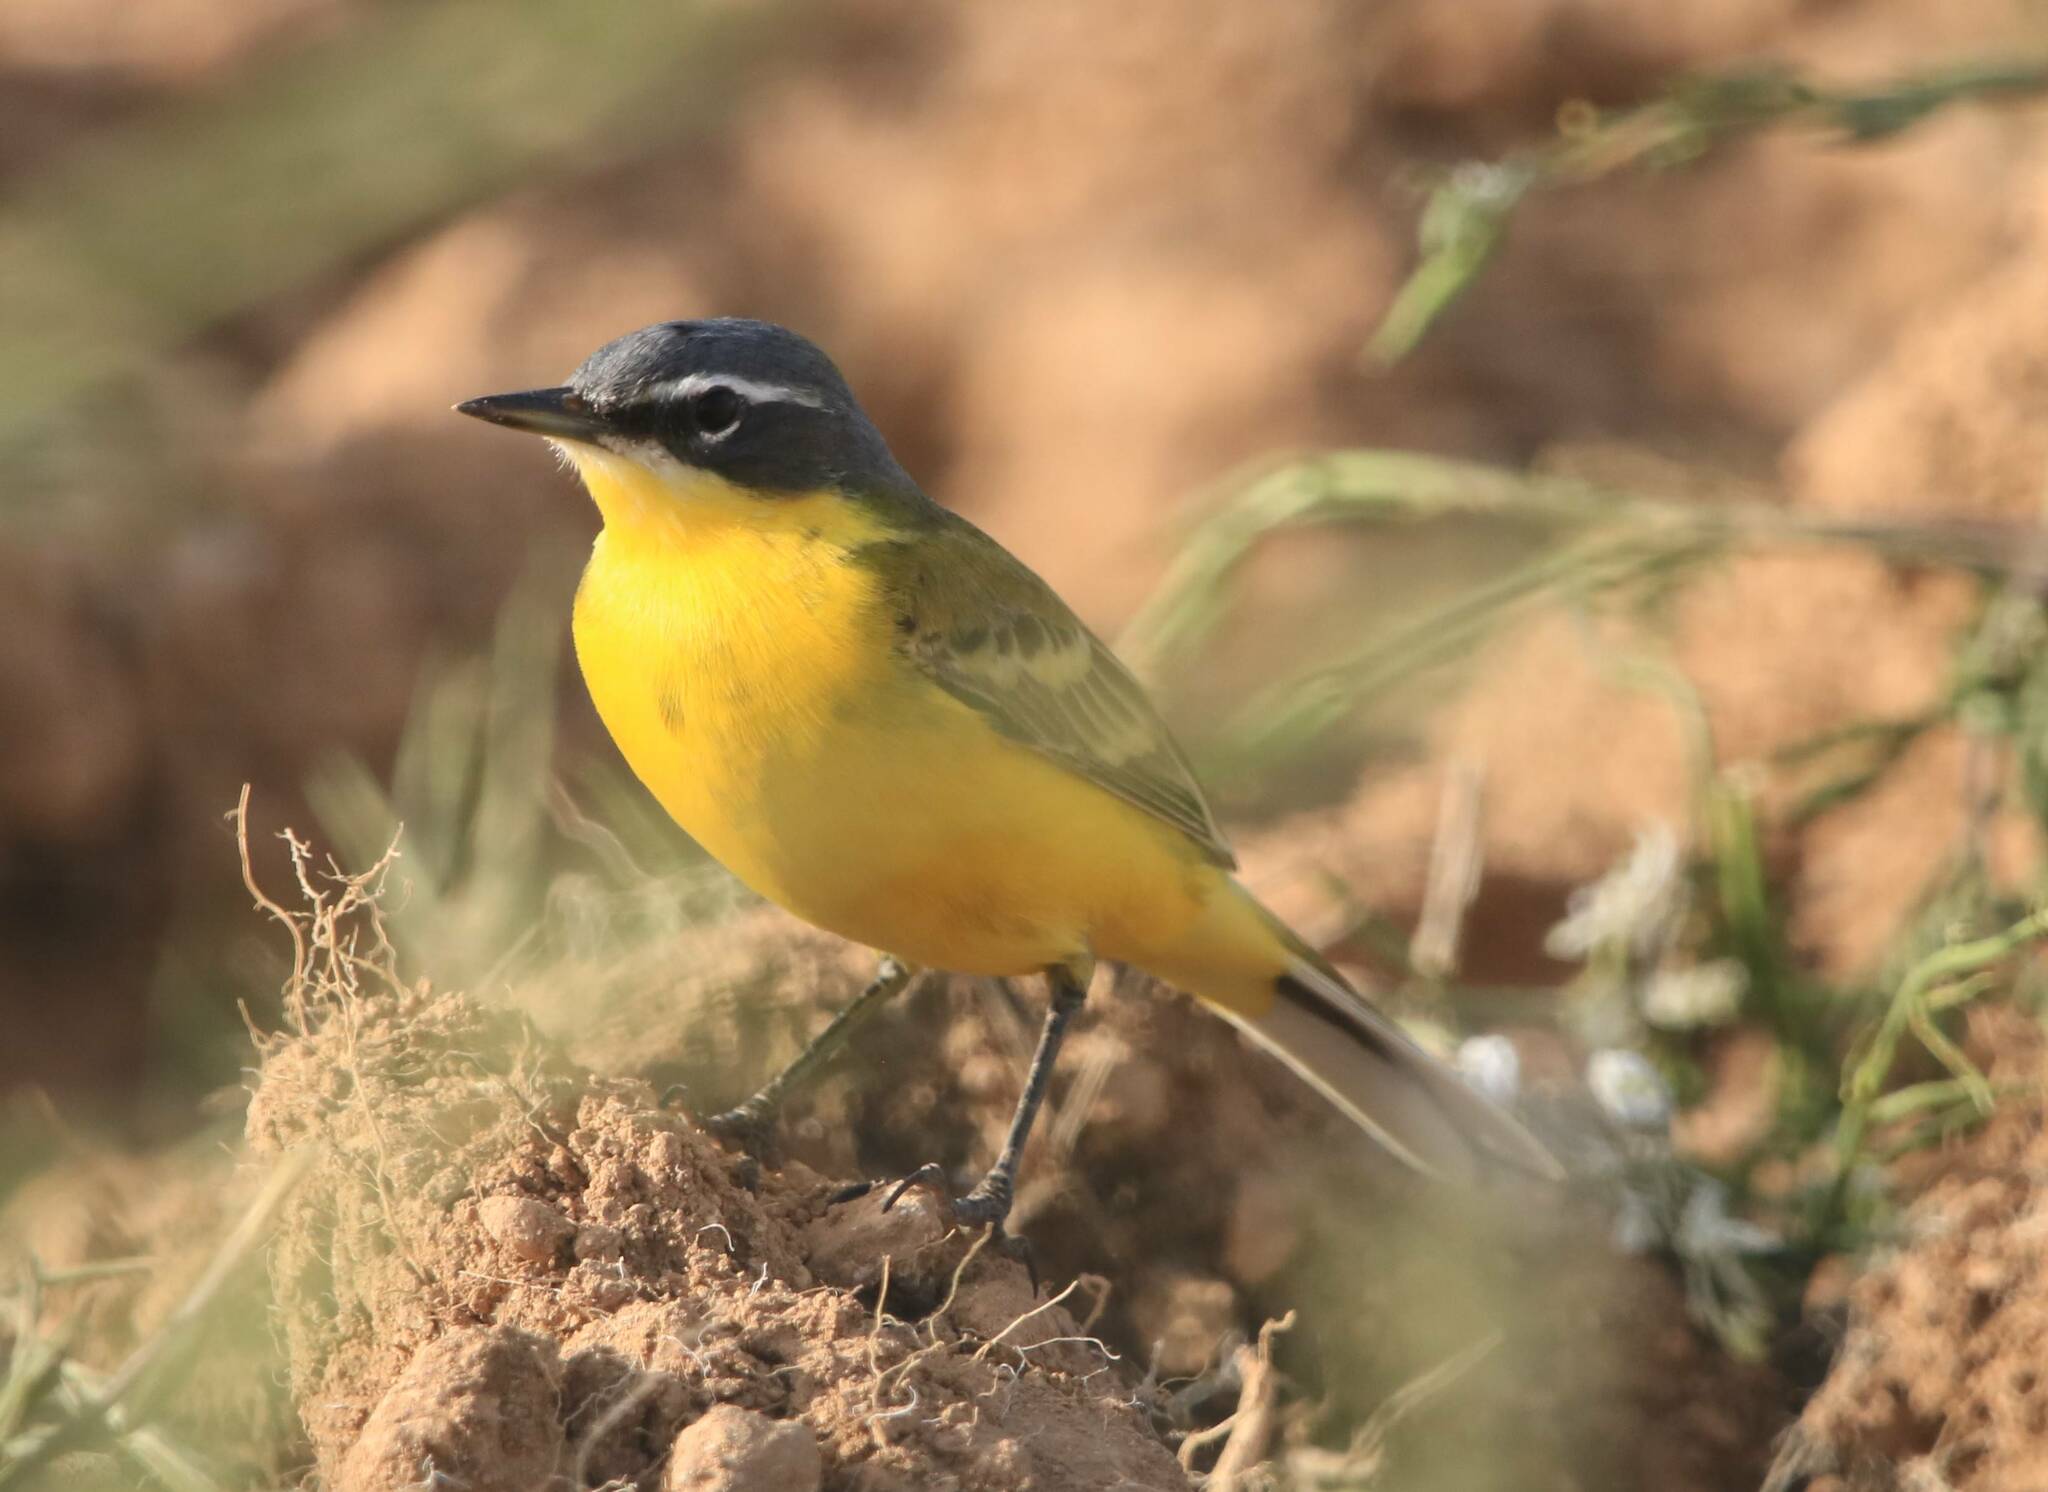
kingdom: Animalia
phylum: Chordata
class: Aves
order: Passeriformes
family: Motacillidae
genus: Motacilla
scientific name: Motacilla flava
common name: Western yellow wagtail
